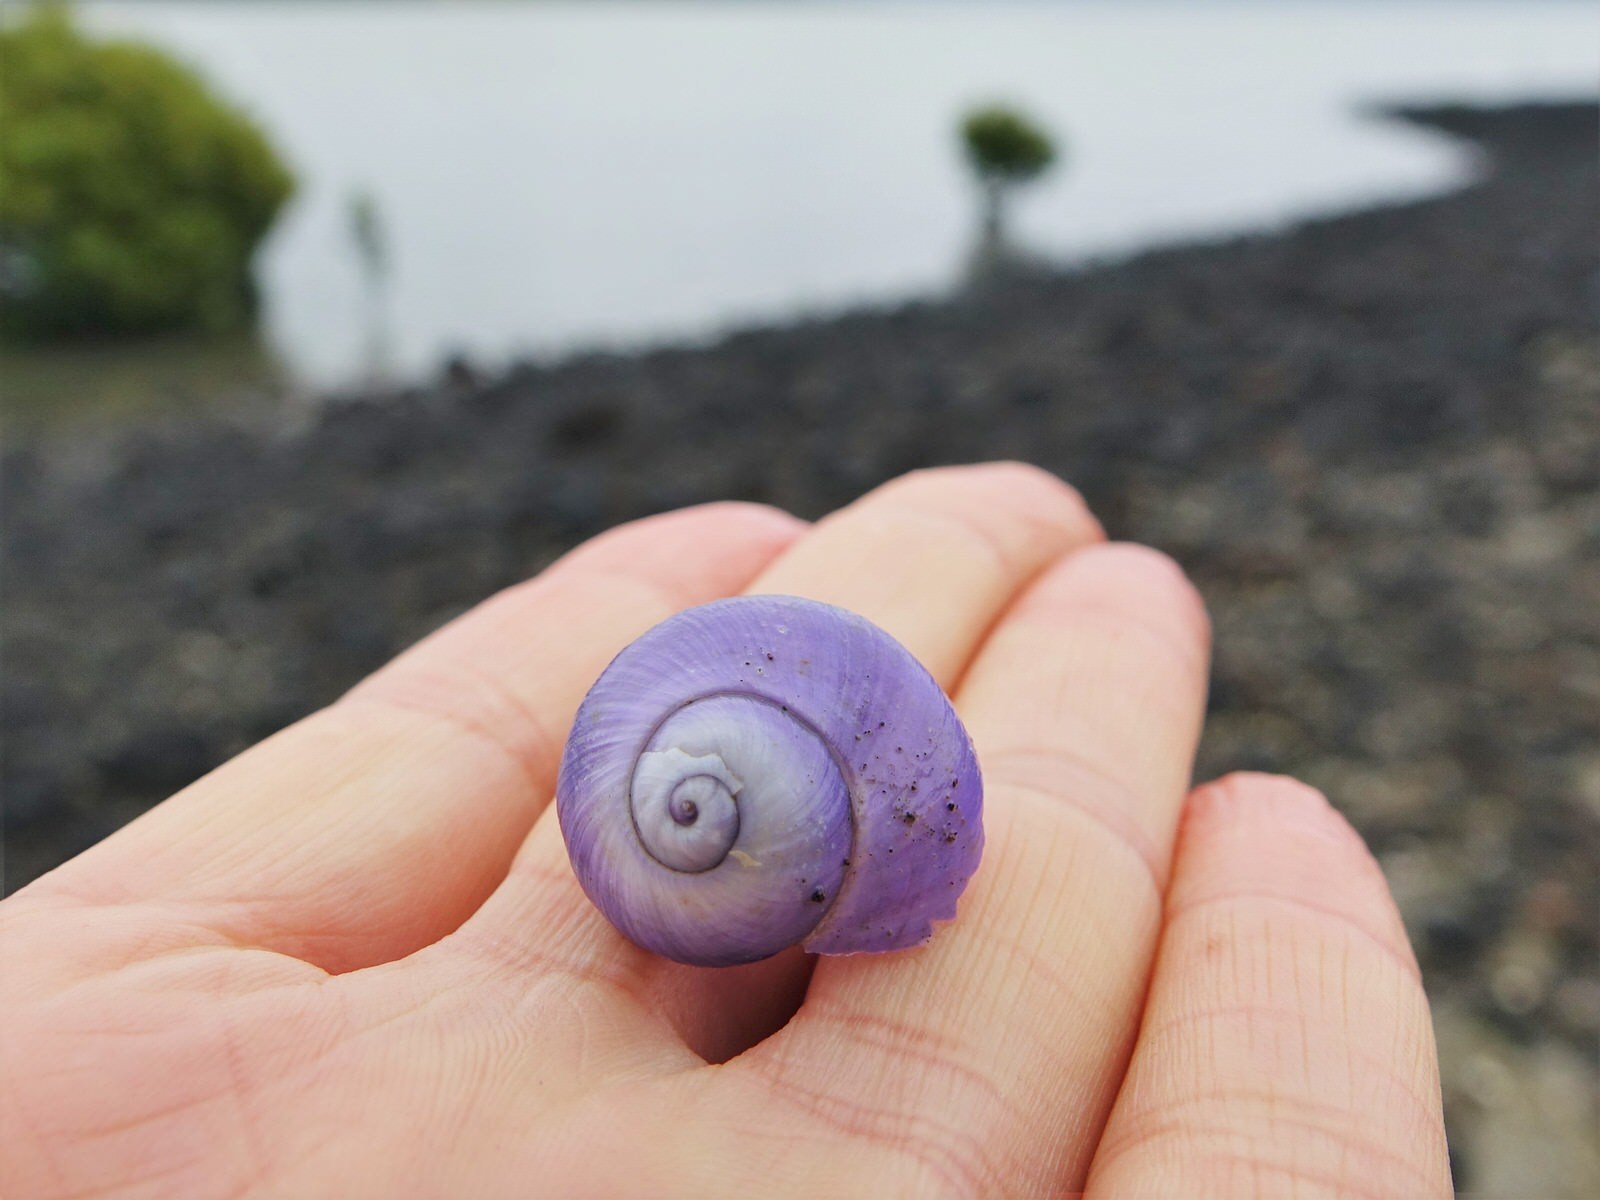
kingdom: Animalia
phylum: Mollusca
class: Gastropoda
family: Epitoniidae
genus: Janthina
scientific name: Janthina janthina
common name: Common janthina
